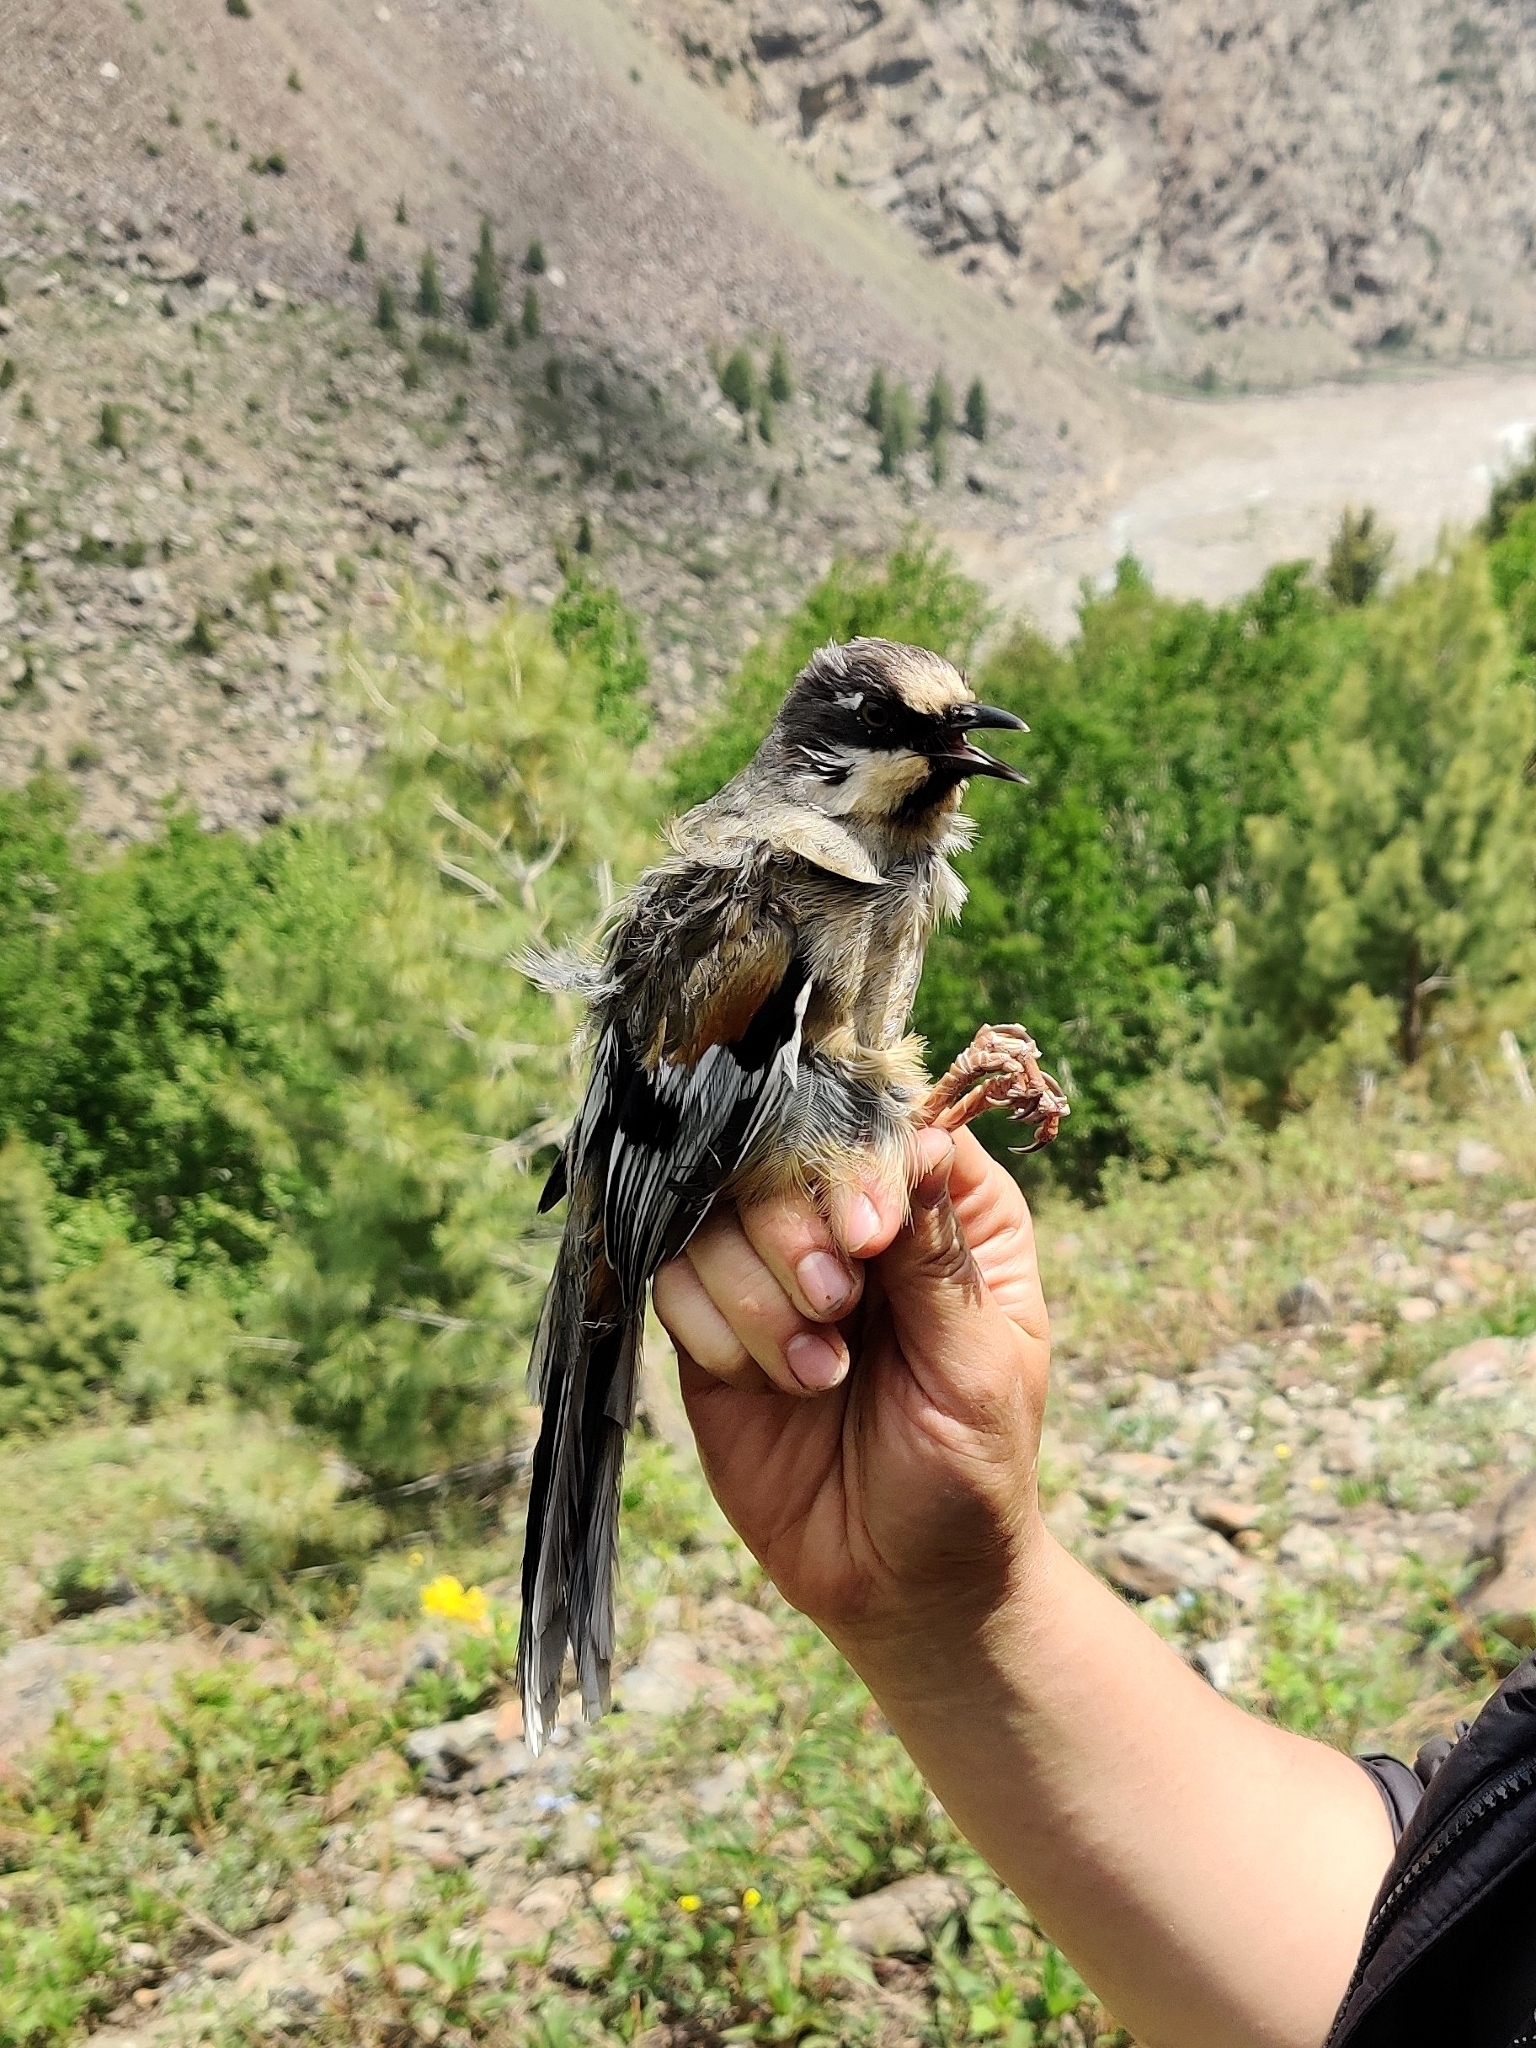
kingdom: Animalia
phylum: Chordata
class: Aves
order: Passeriformes
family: Leiothrichidae
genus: Trochalopteron
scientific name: Trochalopteron variegatum
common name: Variegated laughingthrush
